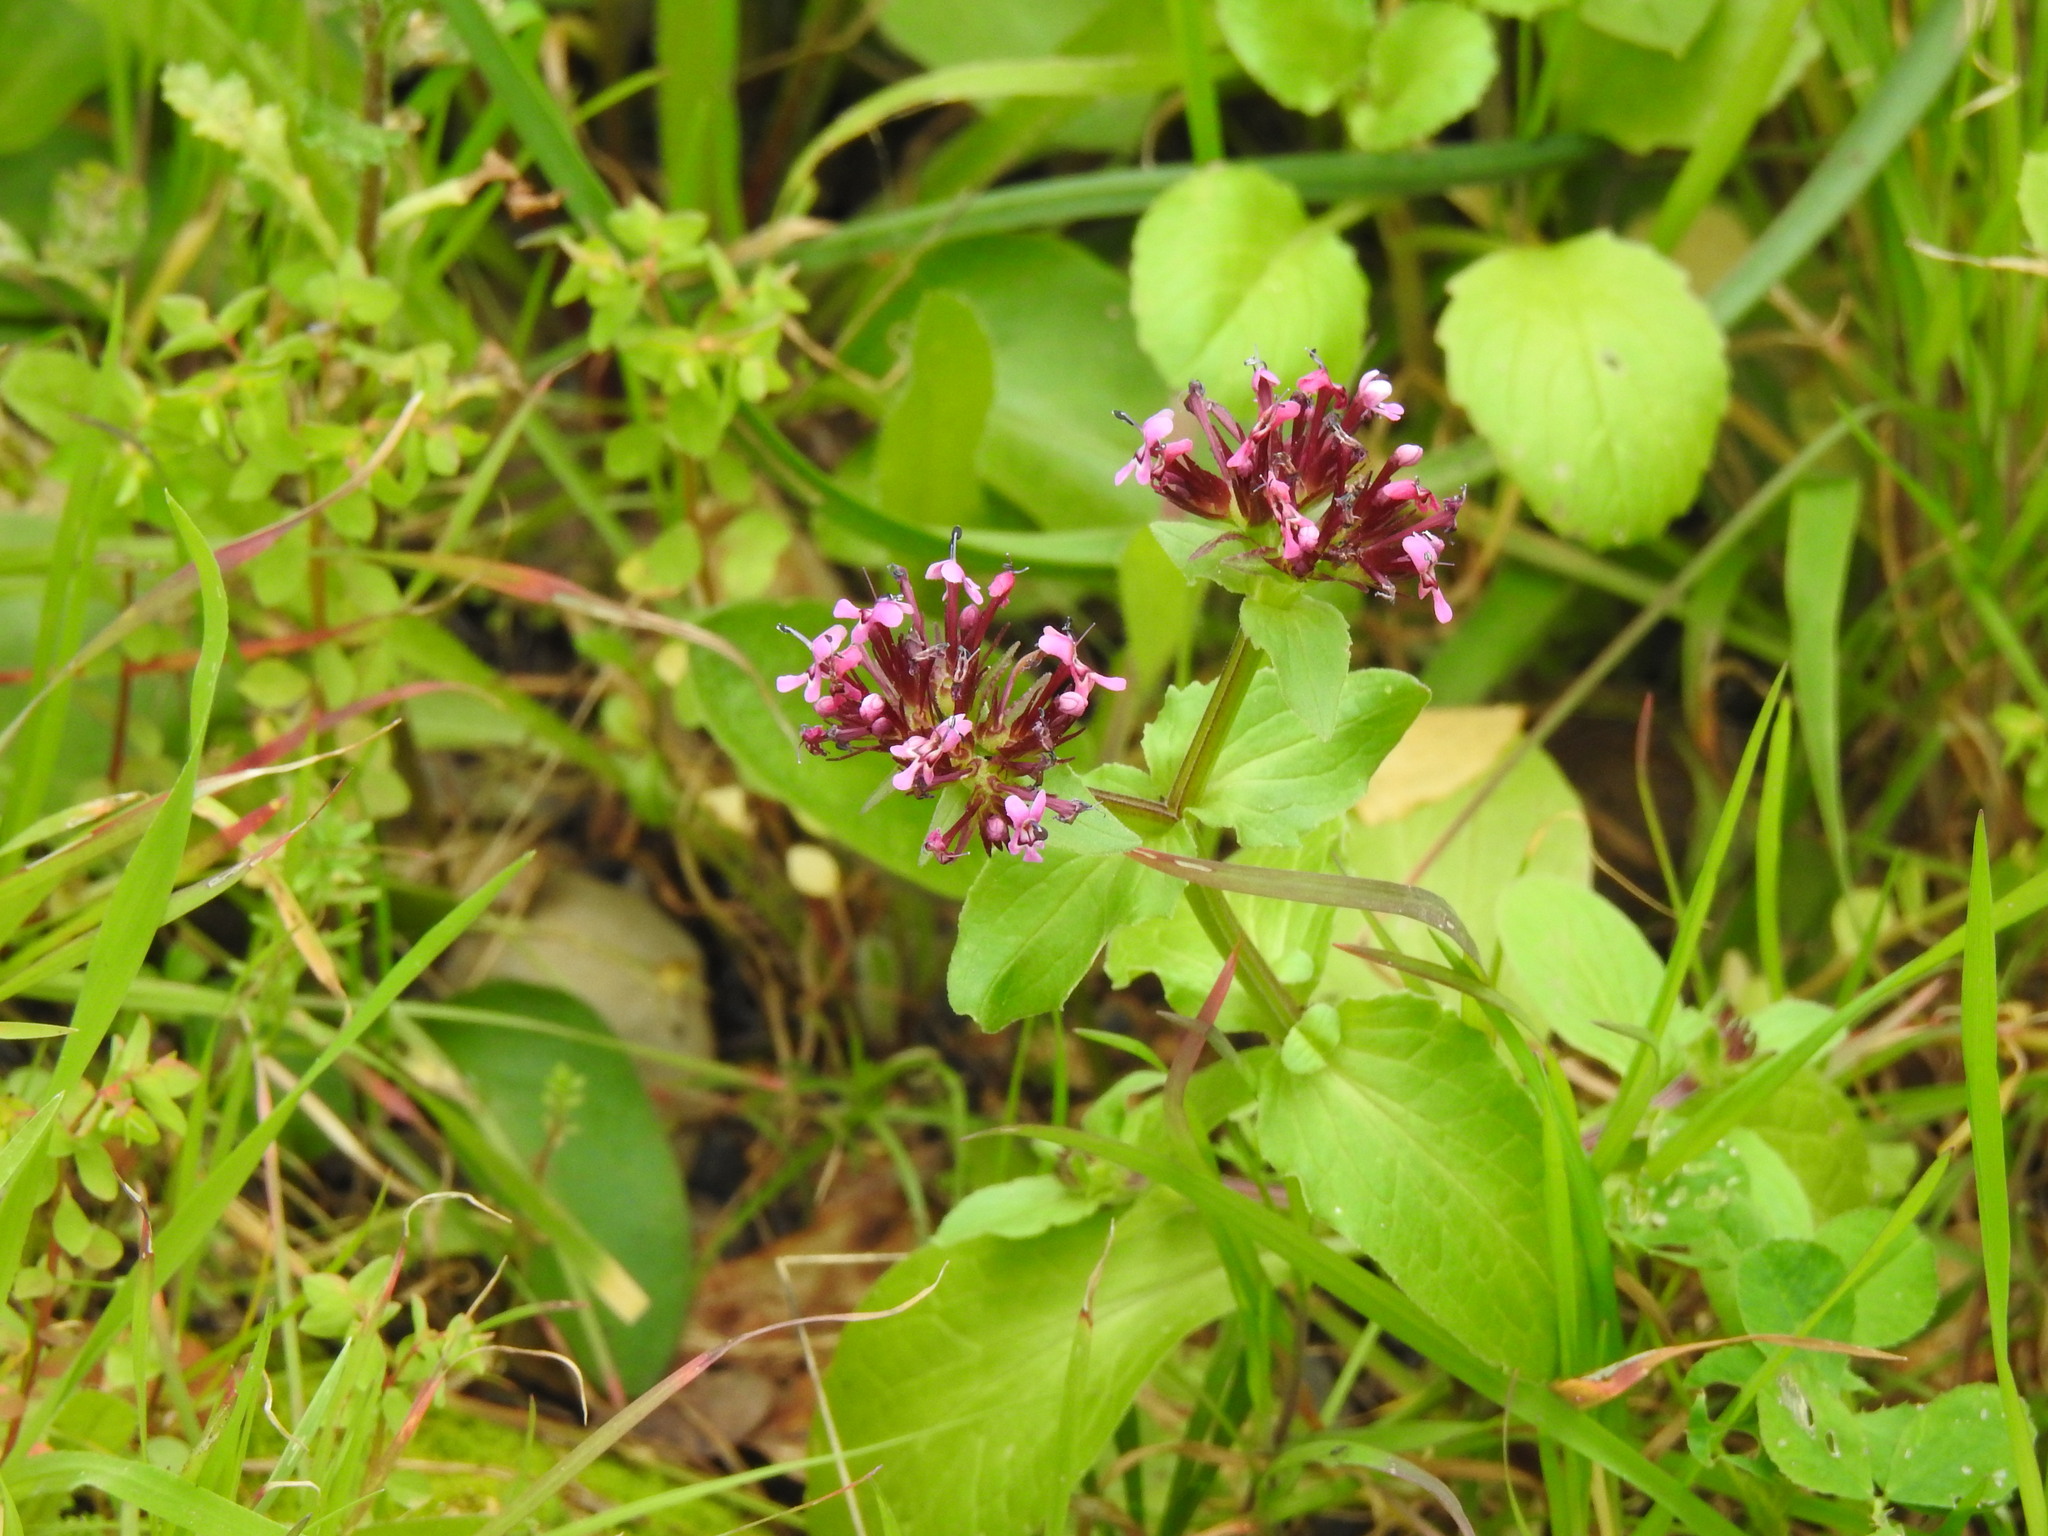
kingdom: Plantae
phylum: Tracheophyta
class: Magnoliopsida
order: Dipsacales
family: Caprifoliaceae
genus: Fedia
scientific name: Fedia cornucopiae
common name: Horn-of-plenty
